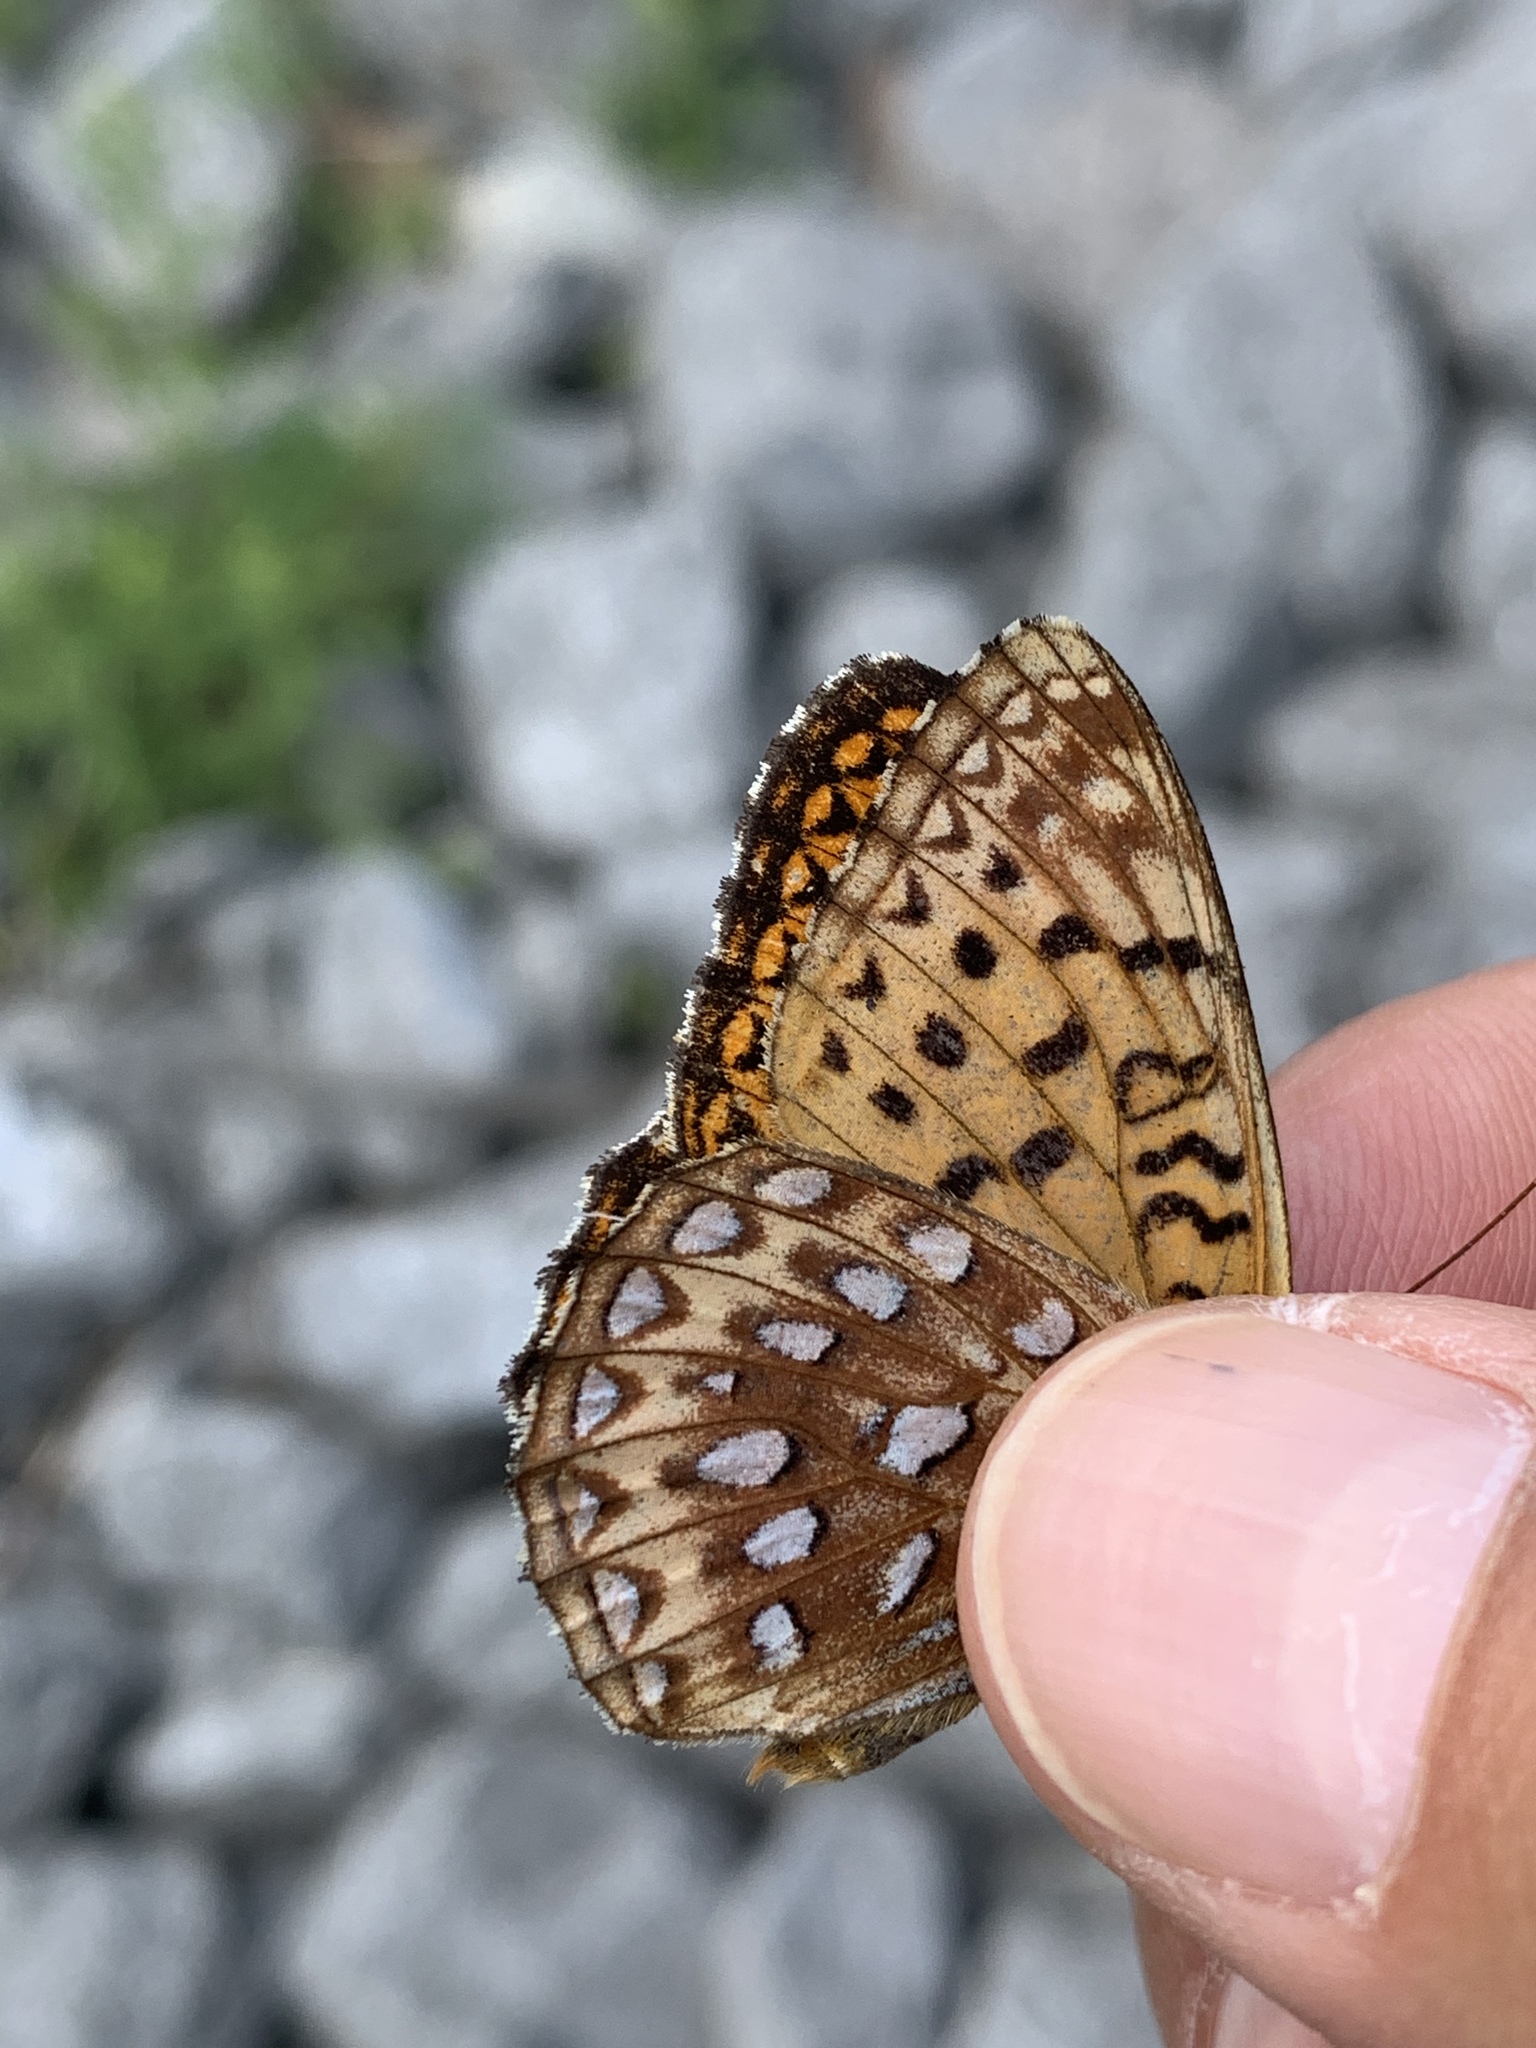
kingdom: Animalia
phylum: Arthropoda
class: Insecta
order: Lepidoptera
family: Nymphalidae
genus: Speyeria
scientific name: Speyeria atlantis
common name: Atlantis fritillary
